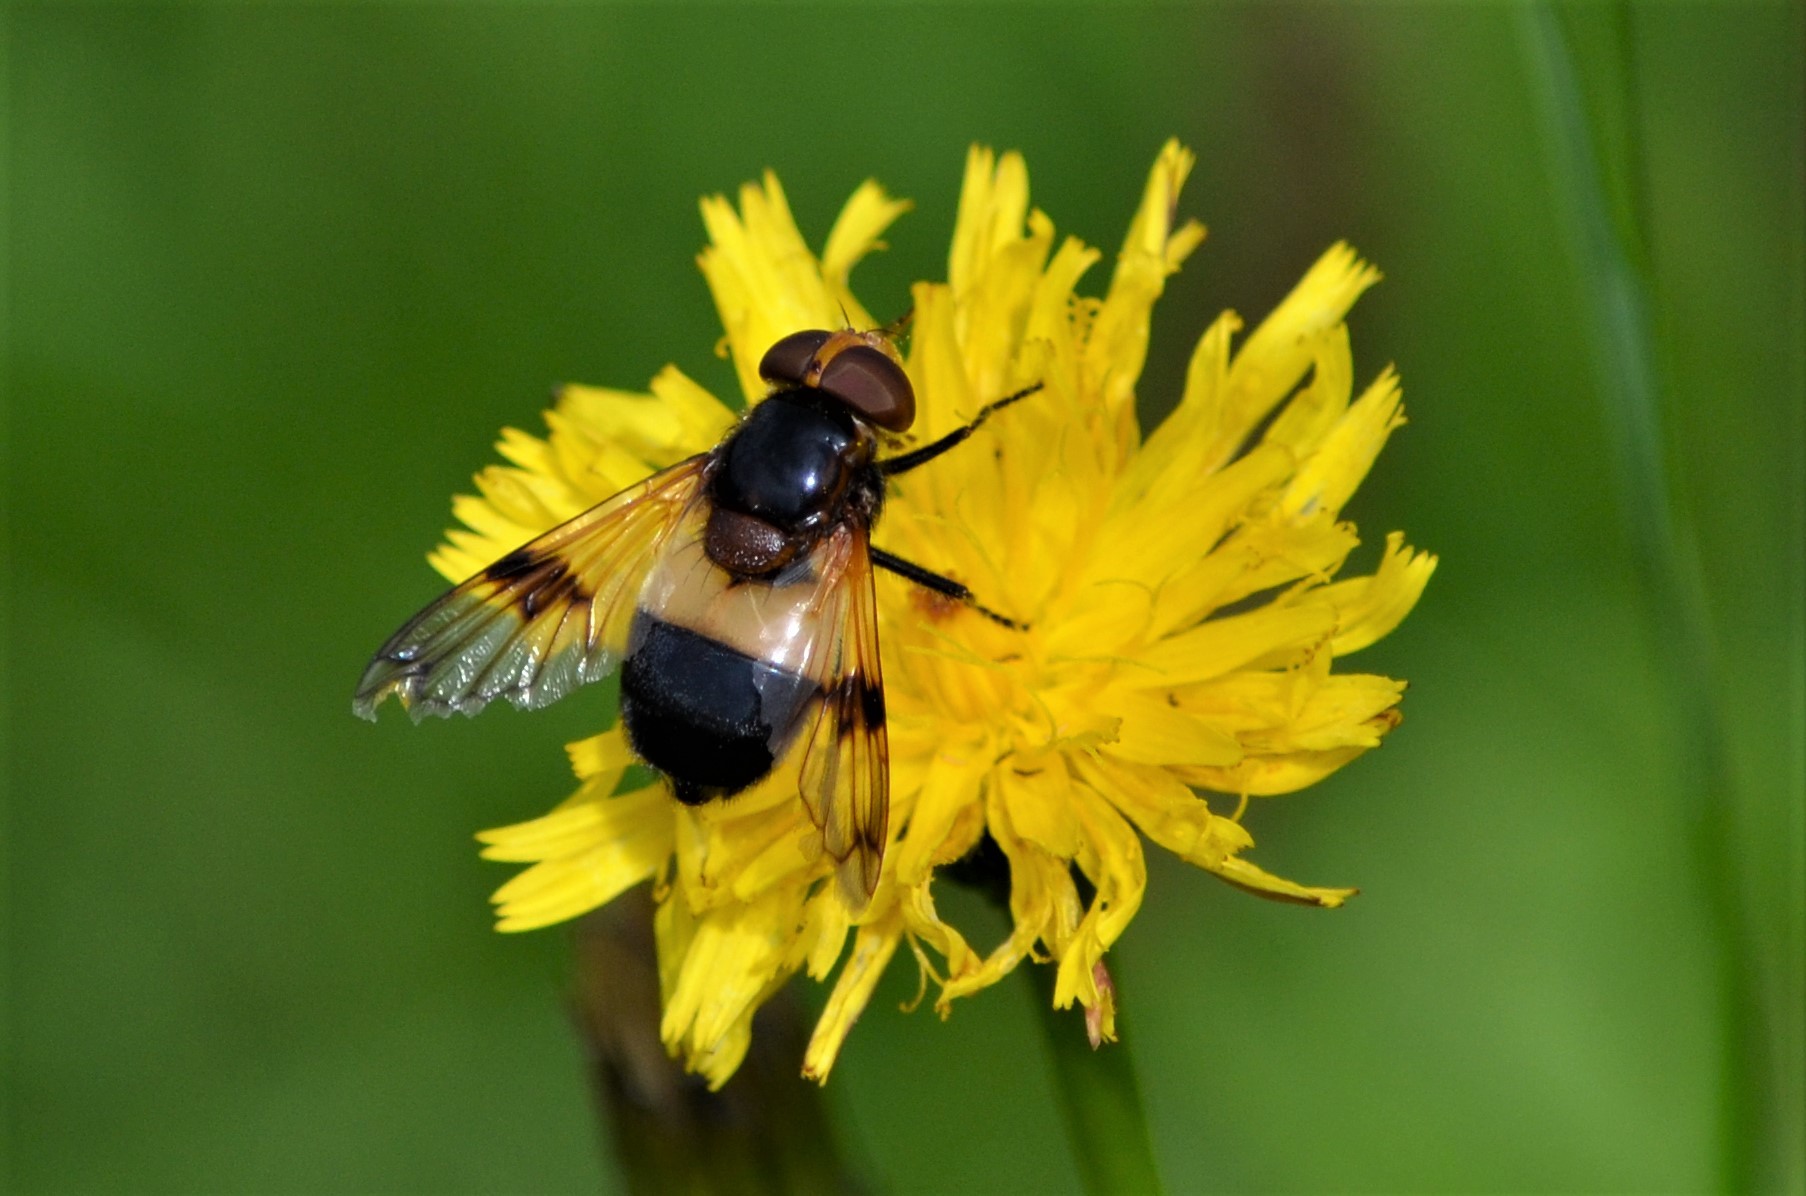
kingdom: Animalia
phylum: Arthropoda
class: Insecta
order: Diptera
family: Syrphidae
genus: Volucella
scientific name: Volucella pellucens
